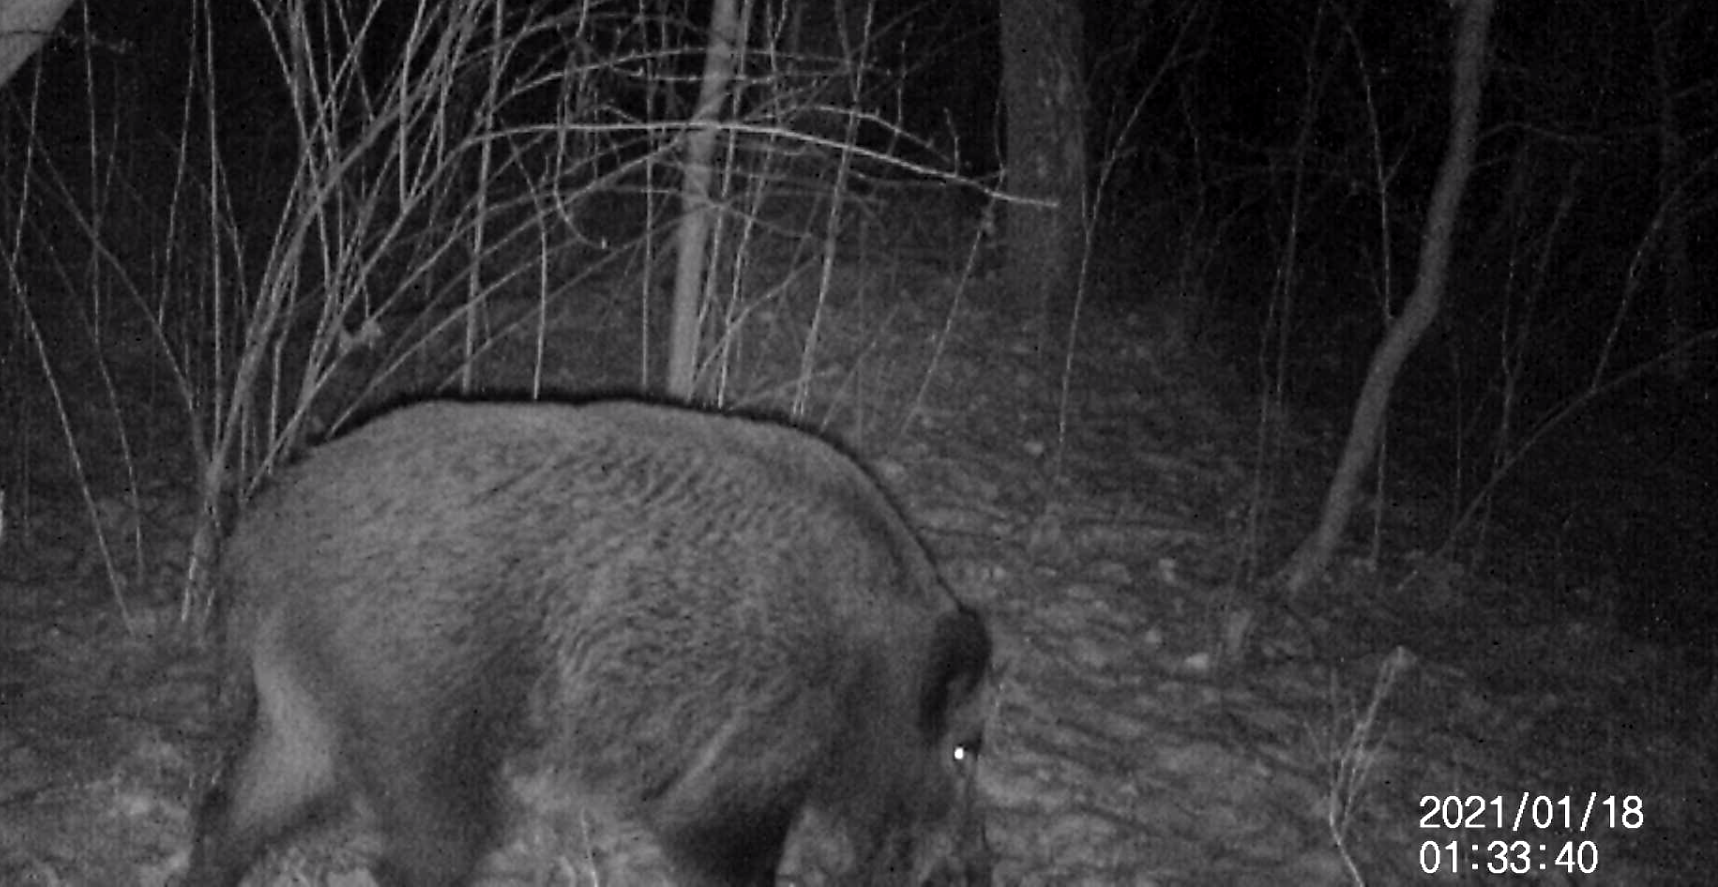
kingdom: Animalia
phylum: Chordata
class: Mammalia
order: Artiodactyla
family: Suidae
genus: Sus
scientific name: Sus scrofa
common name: Wild boar
